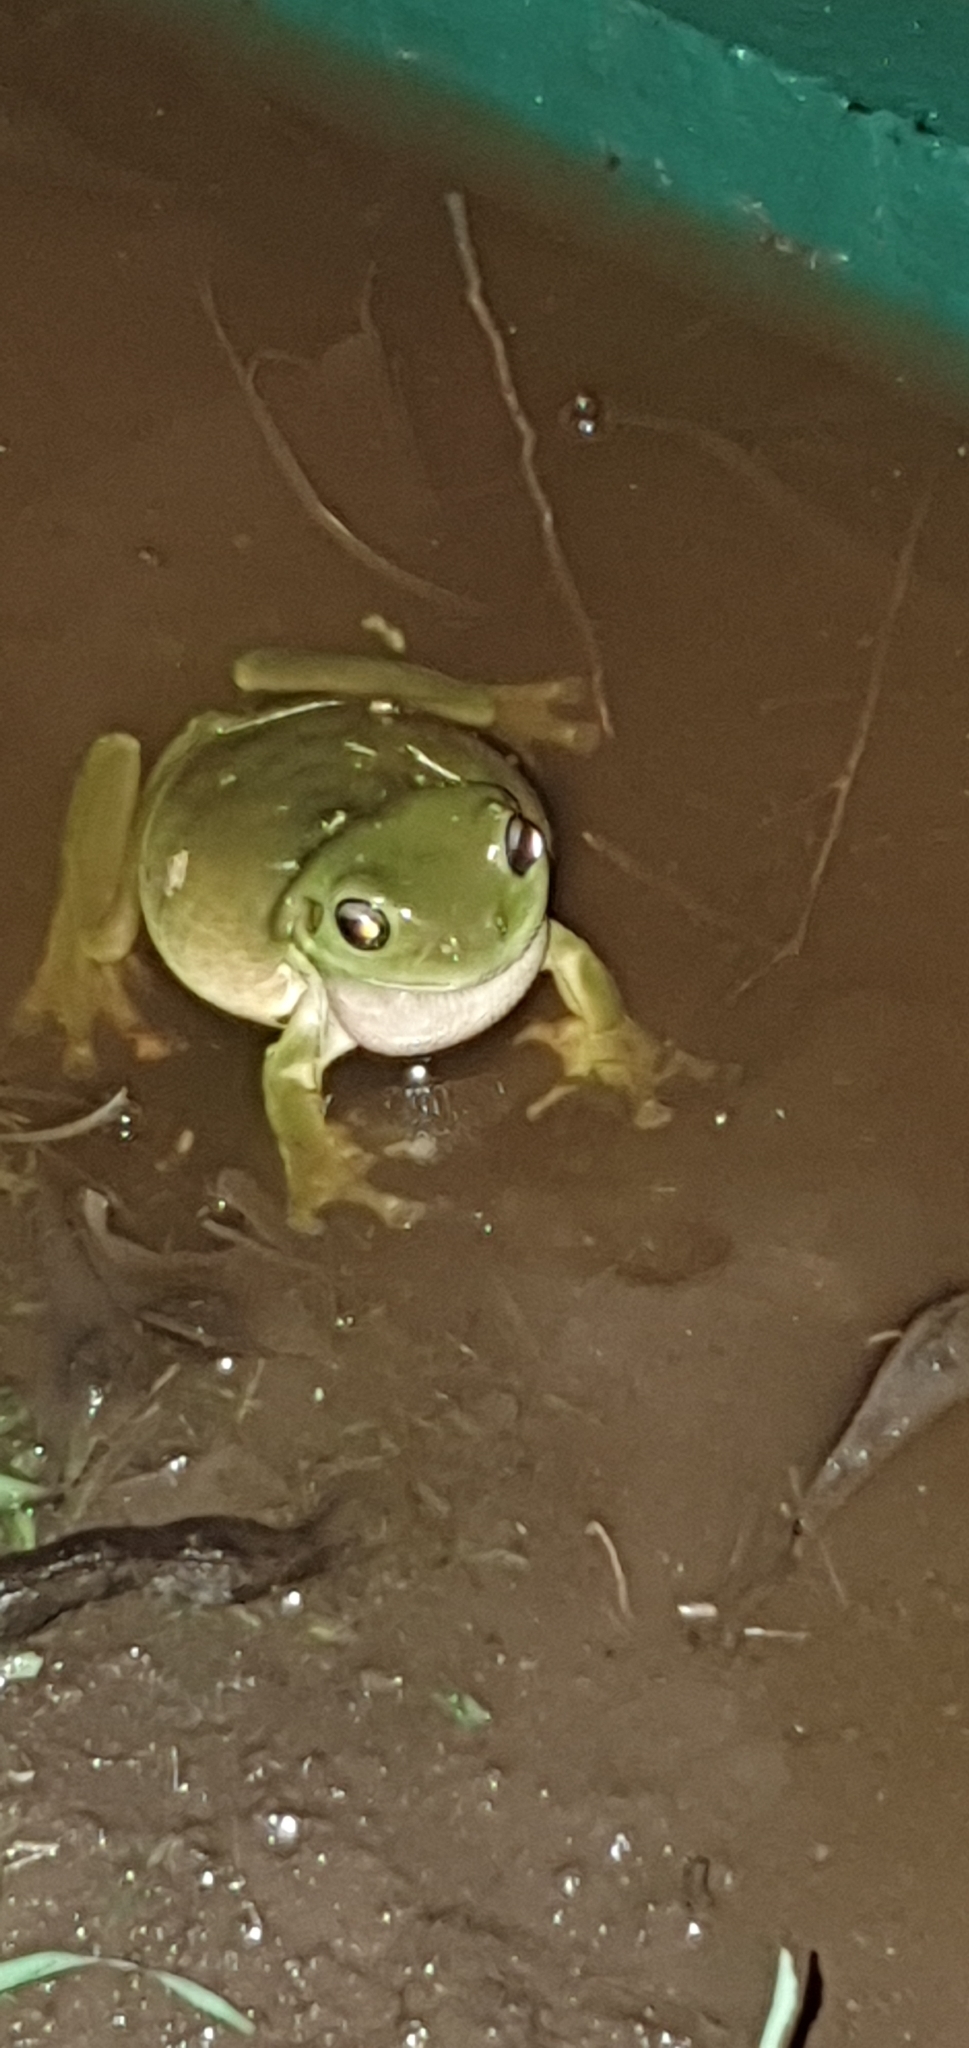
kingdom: Animalia
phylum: Chordata
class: Amphibia
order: Anura
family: Pelodryadidae
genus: Ranoidea
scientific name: Ranoidea caerulea
